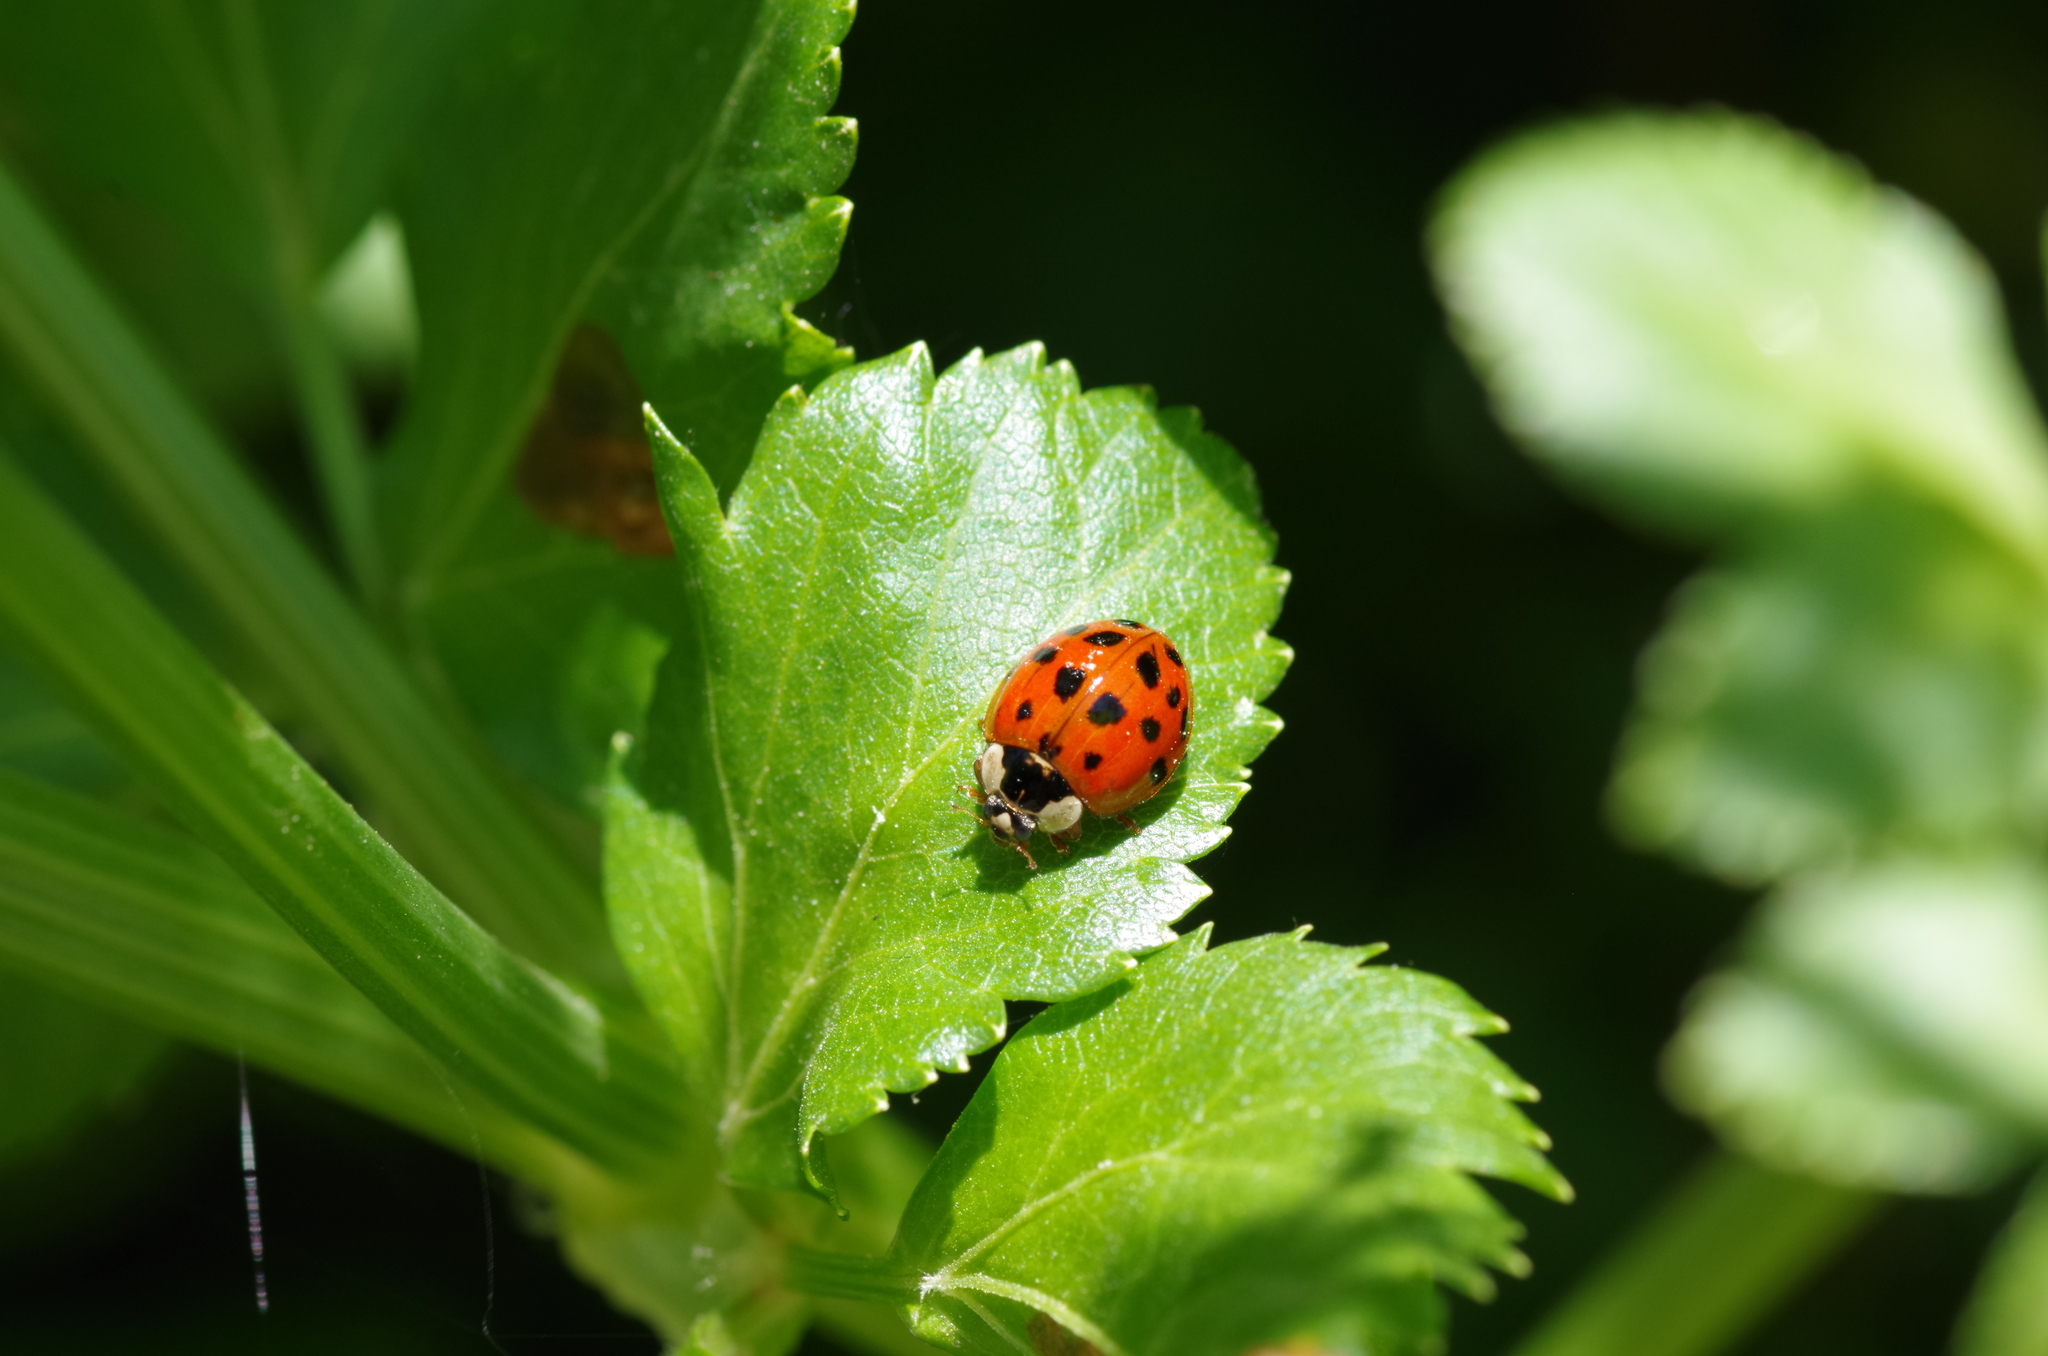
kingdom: Animalia
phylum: Arthropoda
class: Insecta
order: Coleoptera
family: Coccinellidae
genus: Harmonia
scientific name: Harmonia axyridis
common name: Harlequin ladybird
